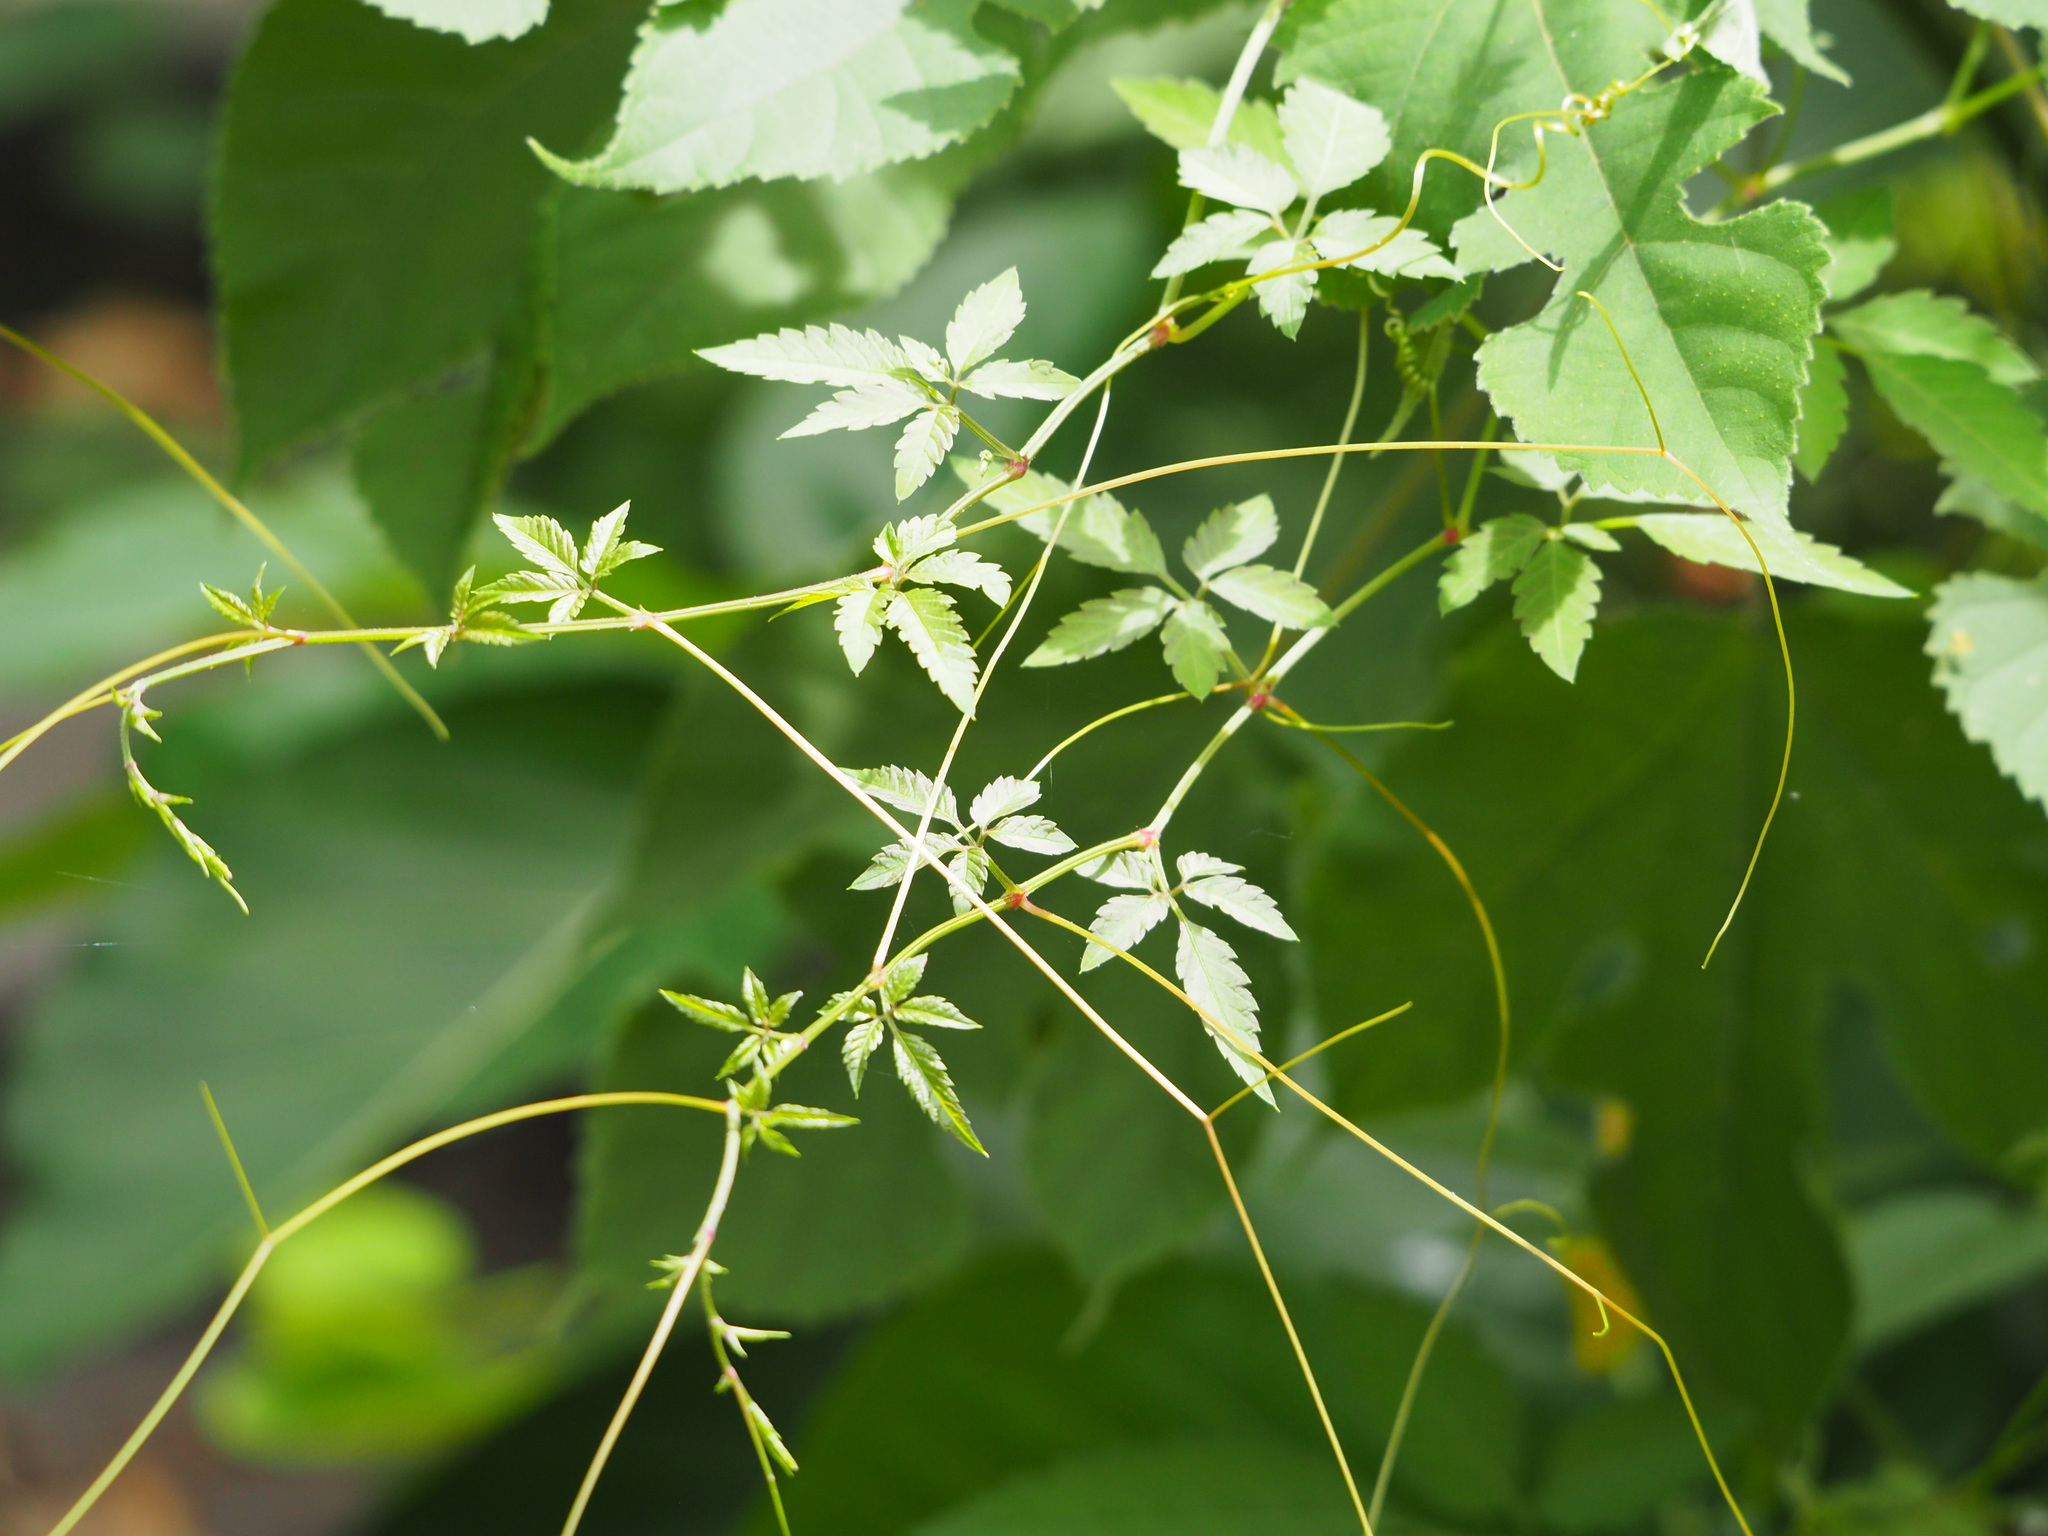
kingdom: Plantae
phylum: Tracheophyta
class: Magnoliopsida
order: Vitales
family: Vitaceae
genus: Causonis
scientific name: Causonis japonica
